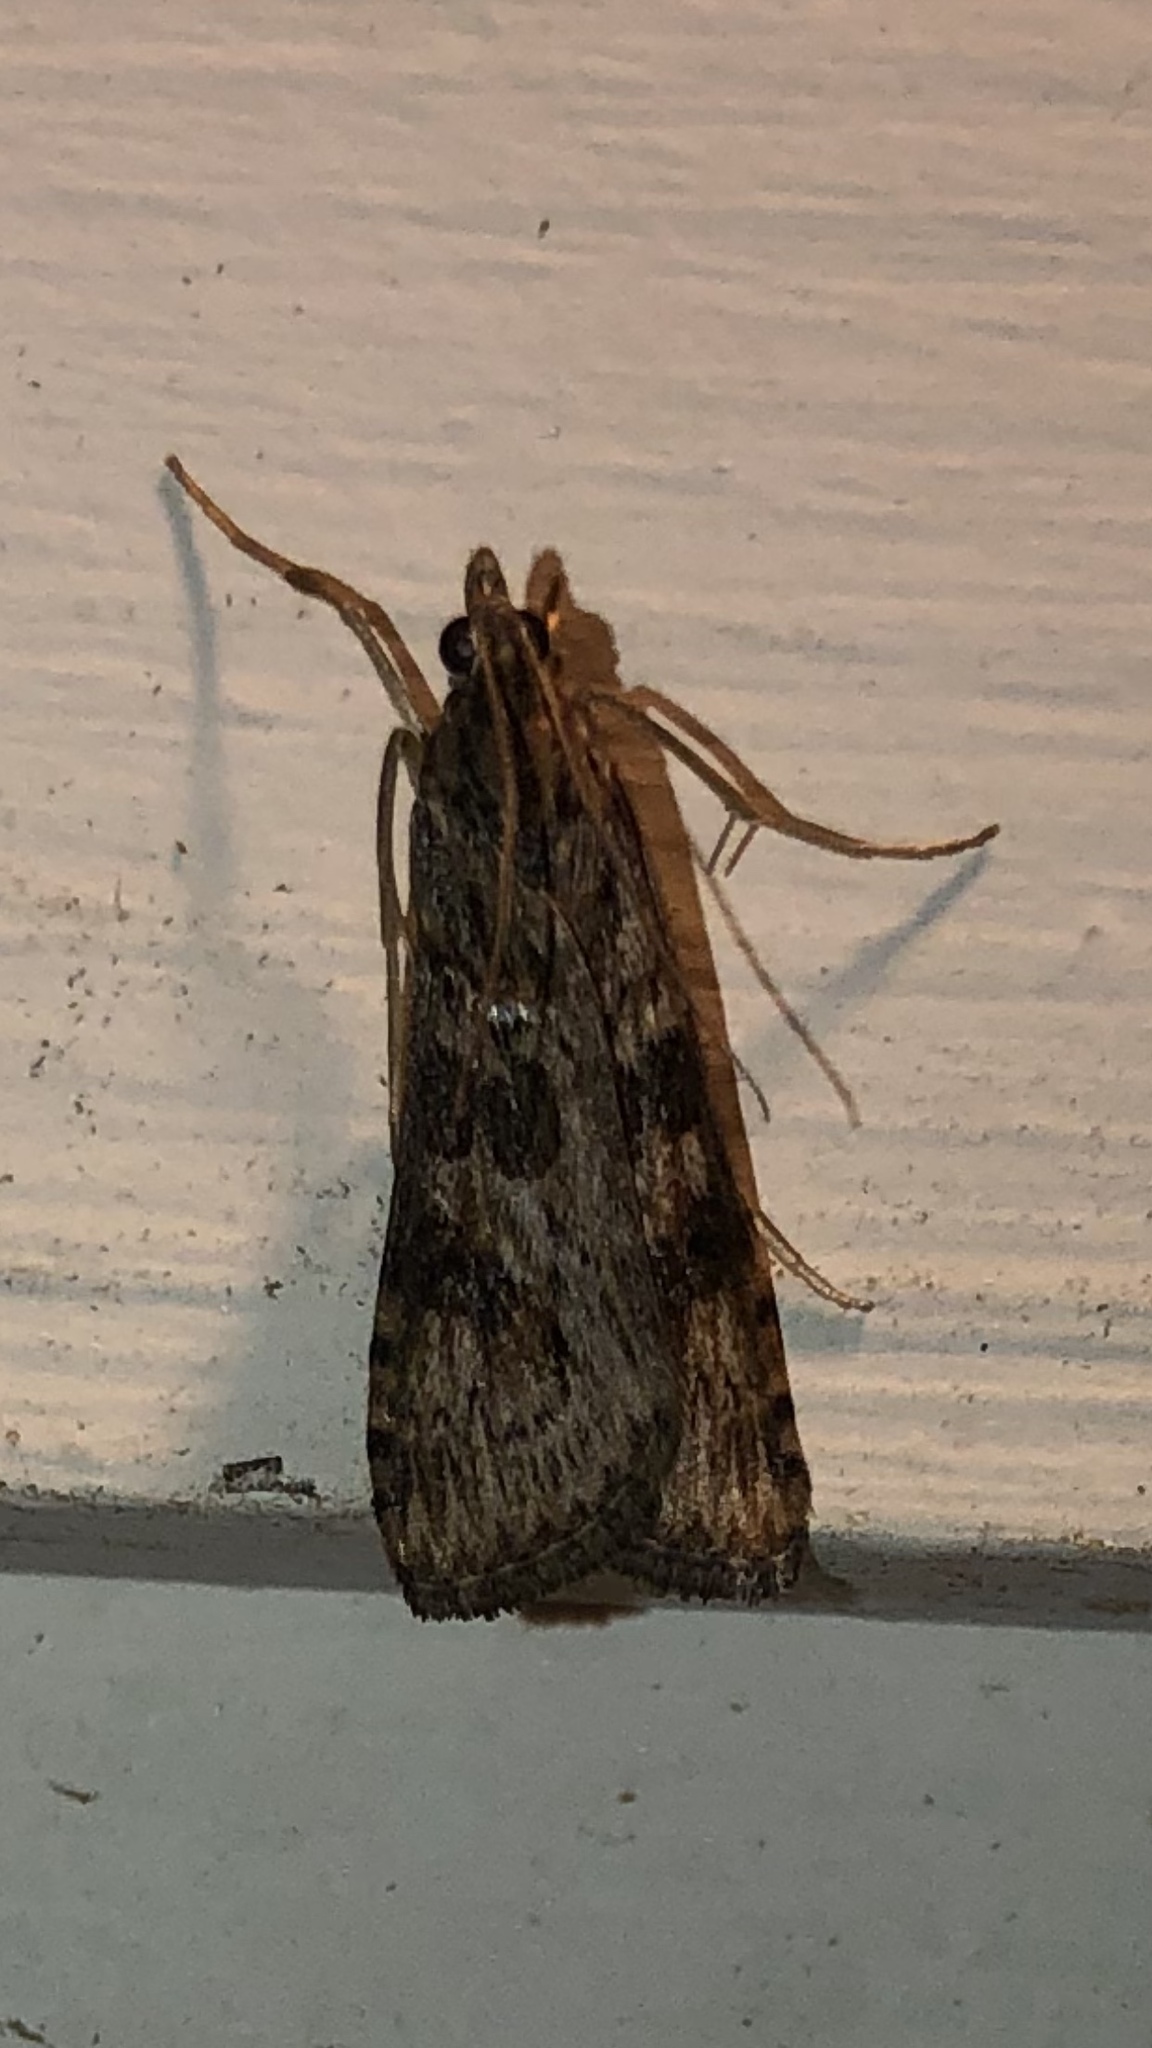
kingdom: Animalia
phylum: Arthropoda
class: Insecta
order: Lepidoptera
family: Crambidae
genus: Nomophila
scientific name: Nomophila nearctica
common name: American rush veneer
